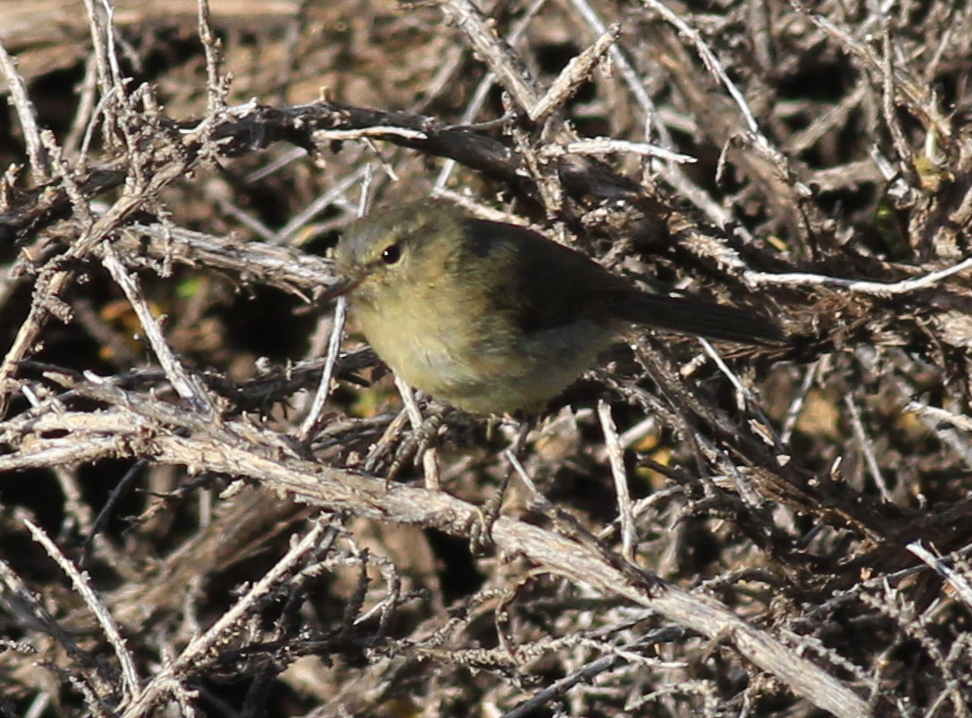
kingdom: Animalia
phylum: Chordata
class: Aves
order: Passeriformes
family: Phylloscopidae
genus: Phylloscopus
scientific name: Phylloscopus canariensis
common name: Canary islands chiffchaff
